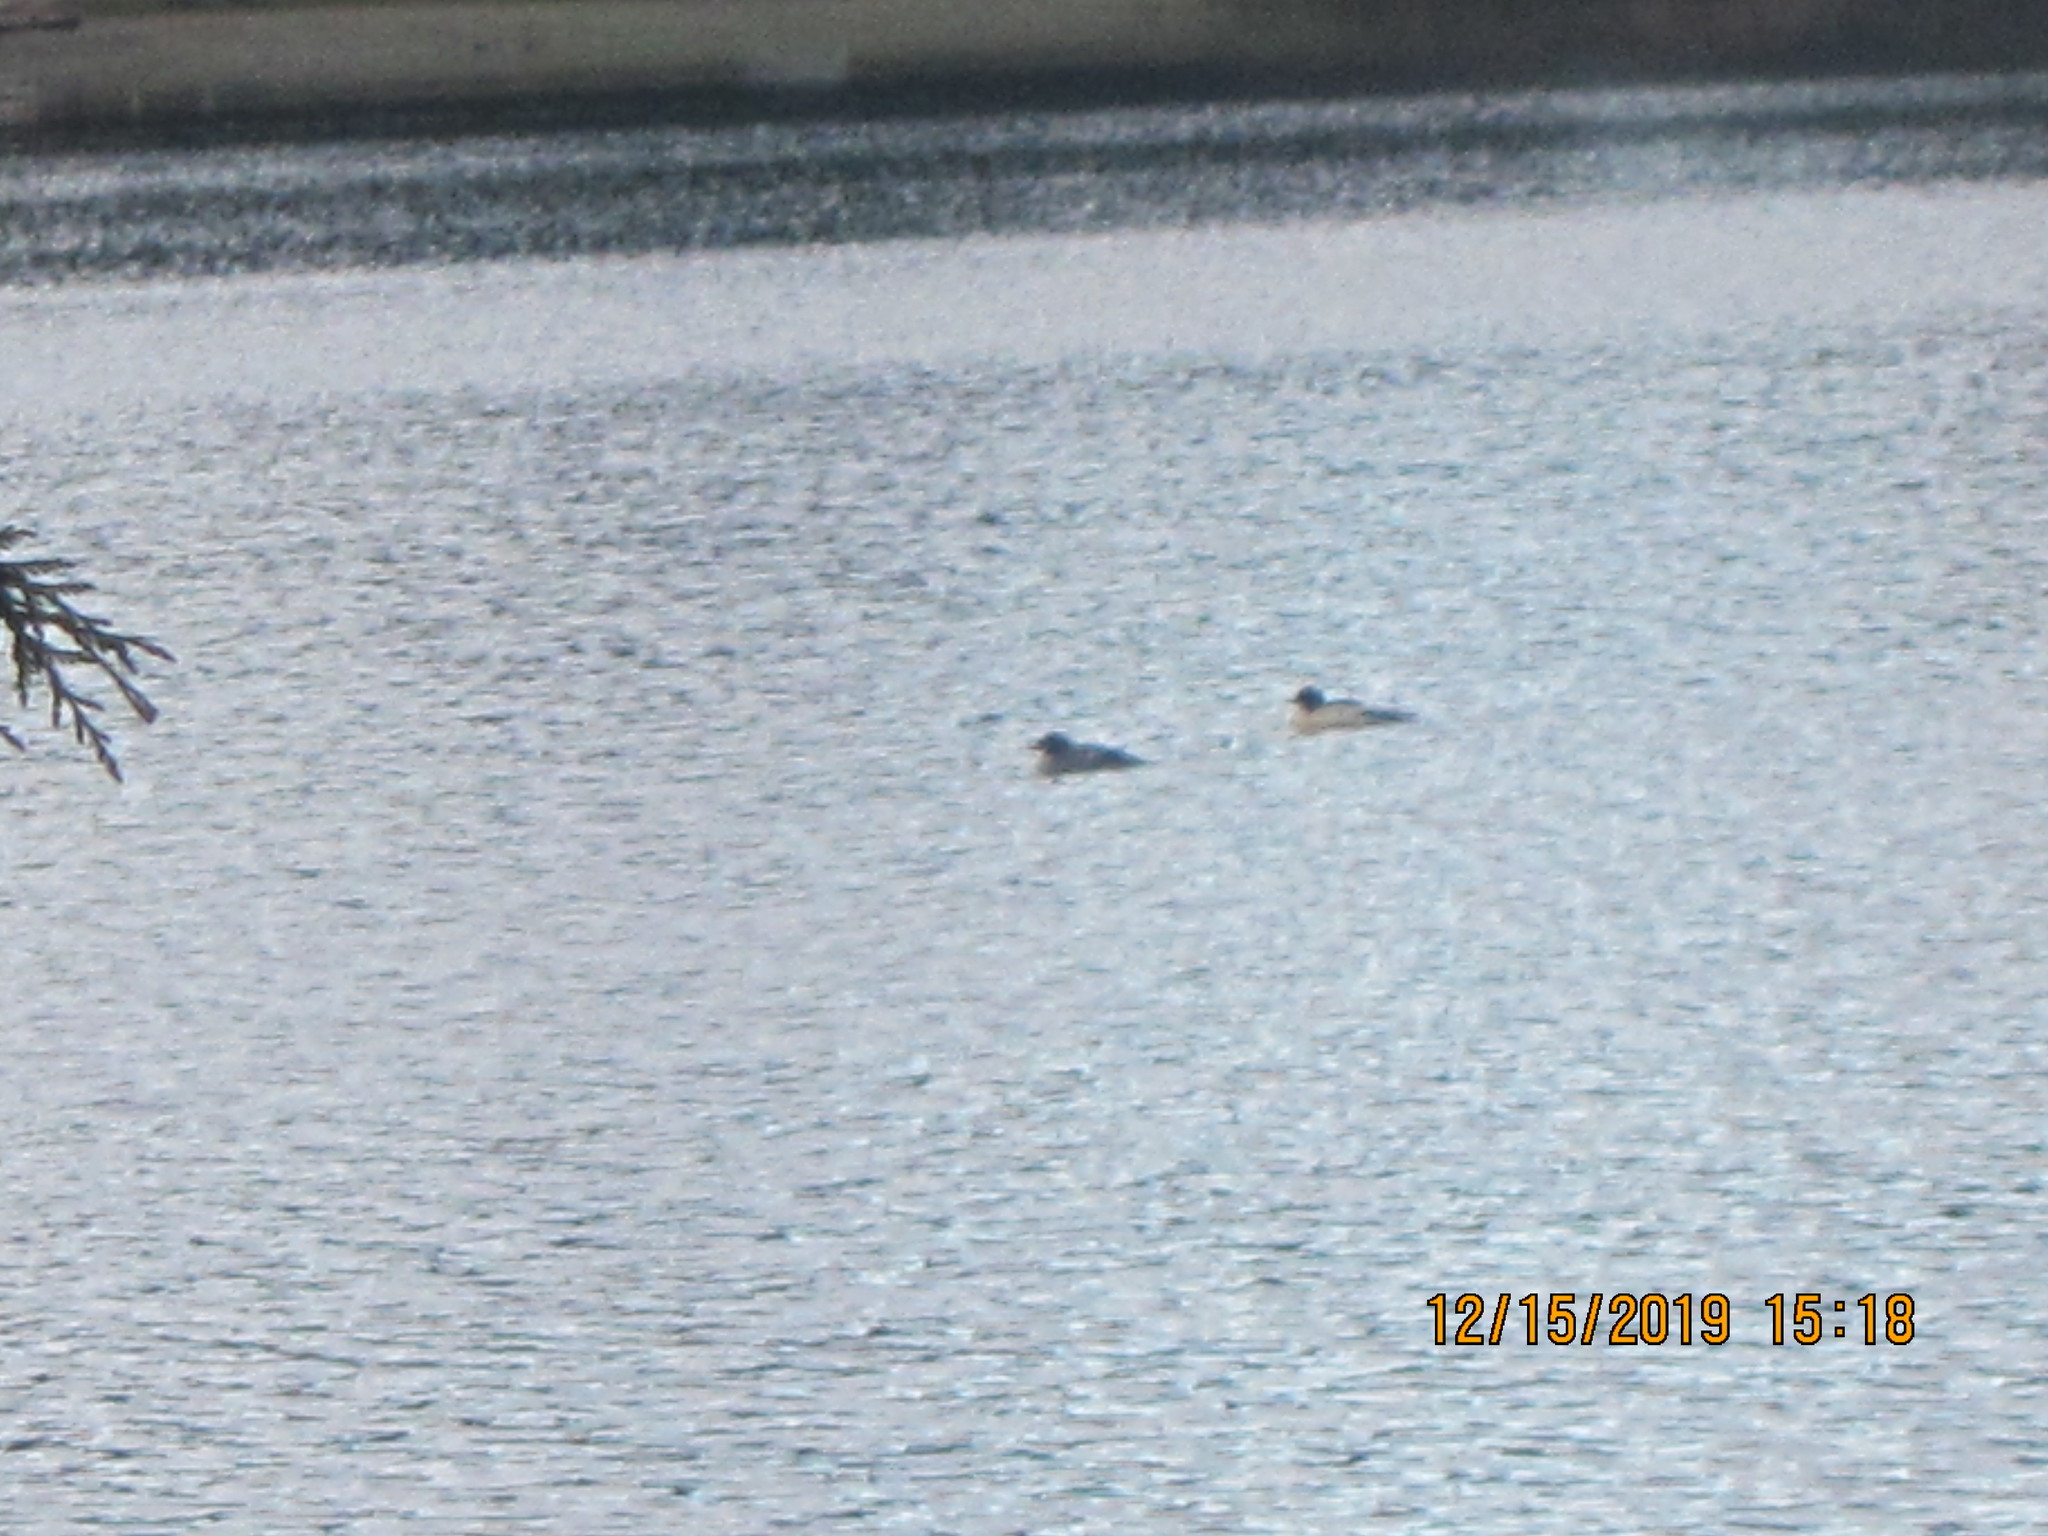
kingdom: Animalia
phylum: Chordata
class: Aves
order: Anseriformes
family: Anatidae
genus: Mergus
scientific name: Mergus merganser
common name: Common merganser
